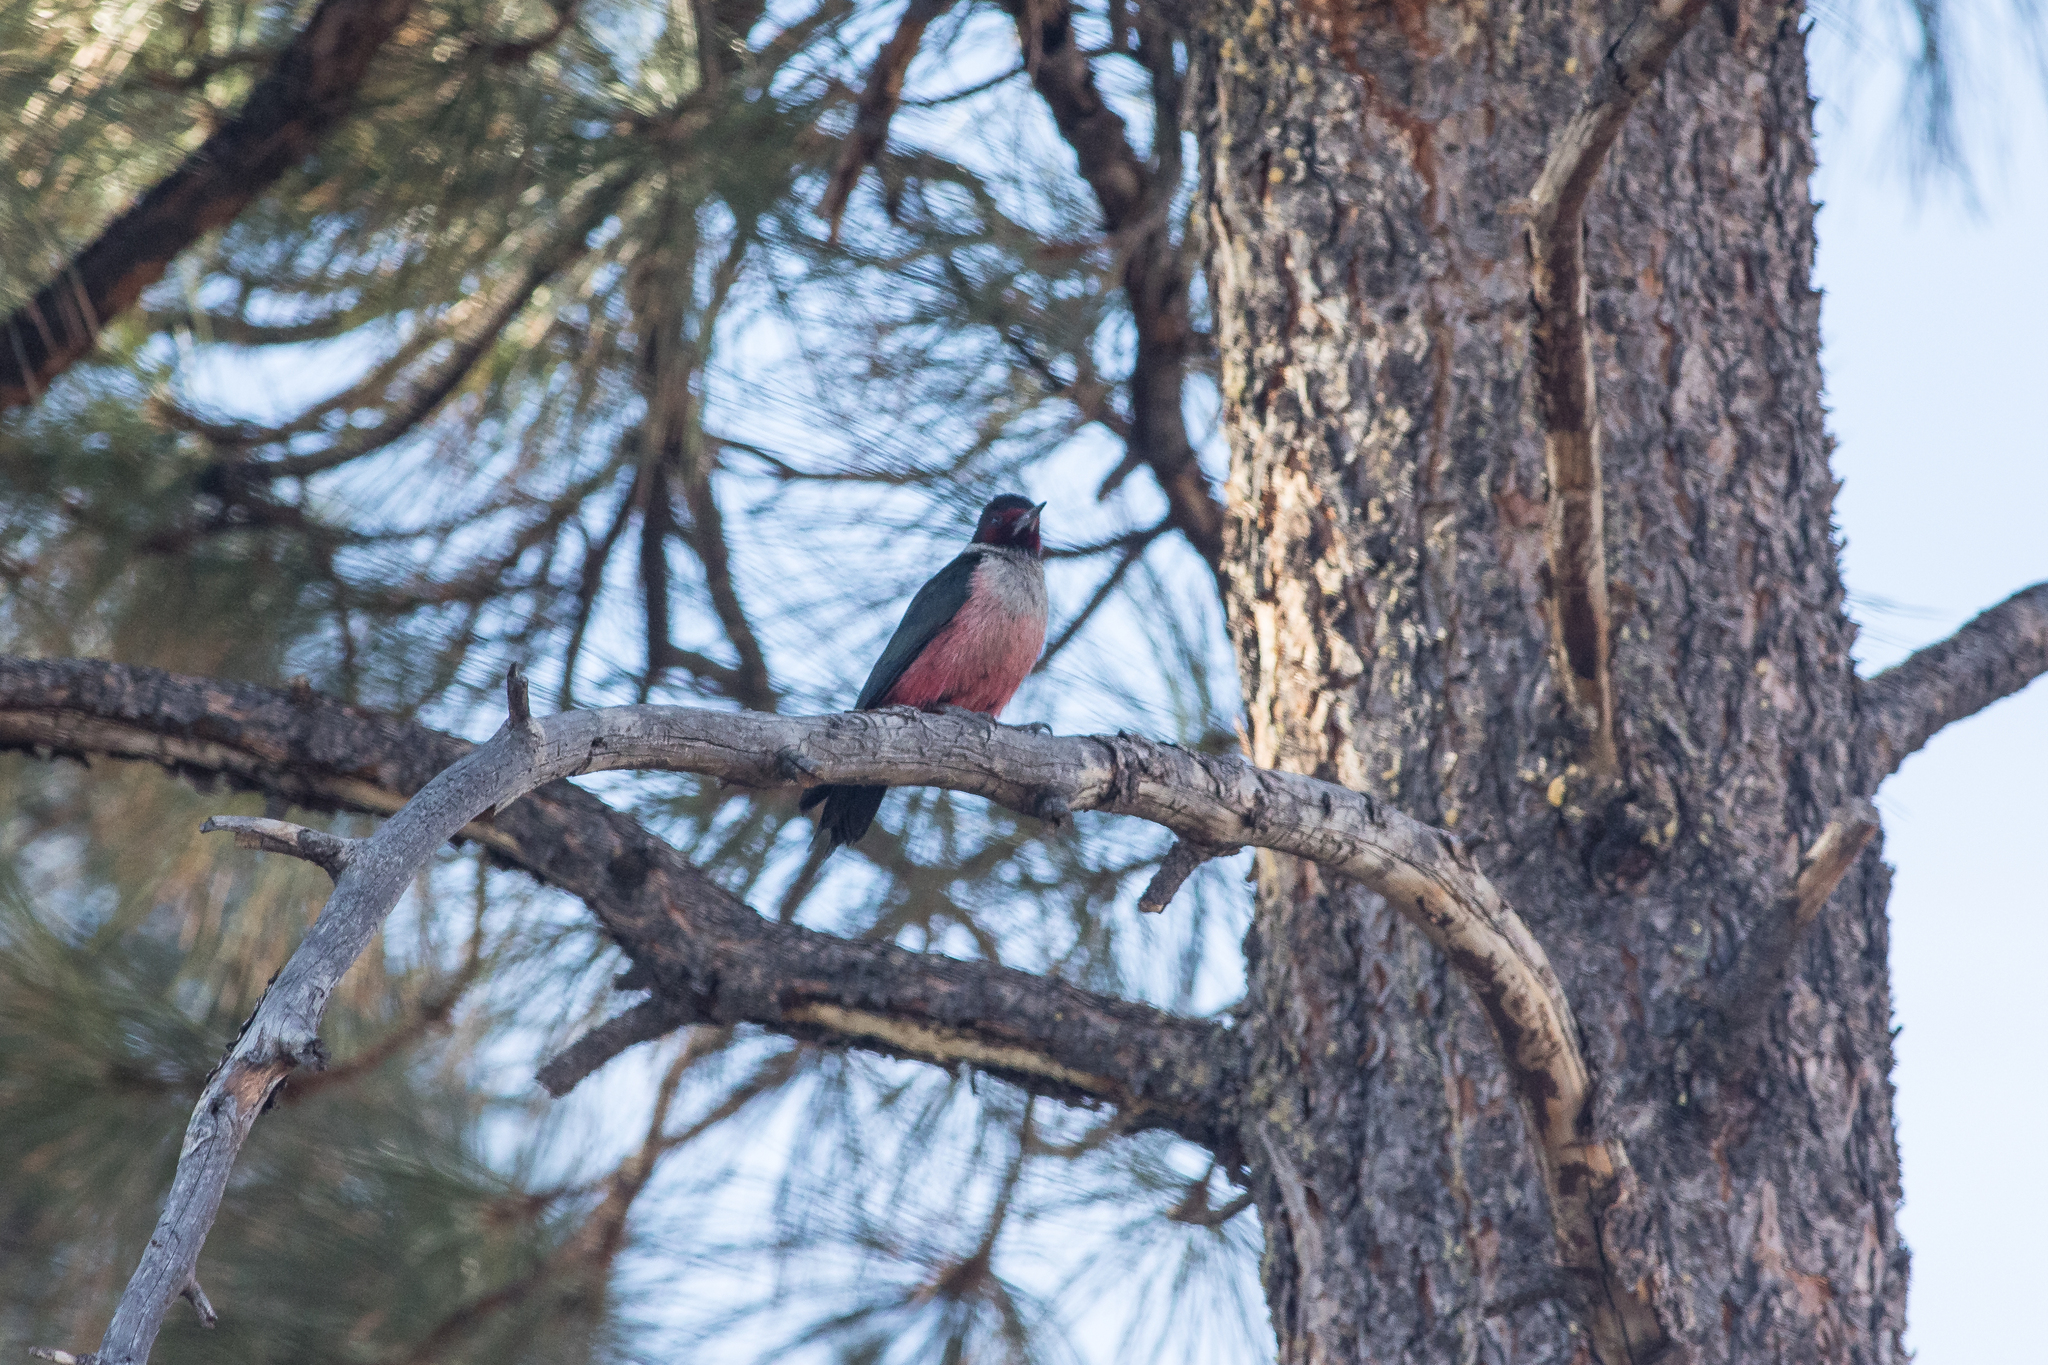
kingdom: Animalia
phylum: Chordata
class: Aves
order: Piciformes
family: Picidae
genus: Melanerpes
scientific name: Melanerpes lewis
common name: Lewis's woodpecker
